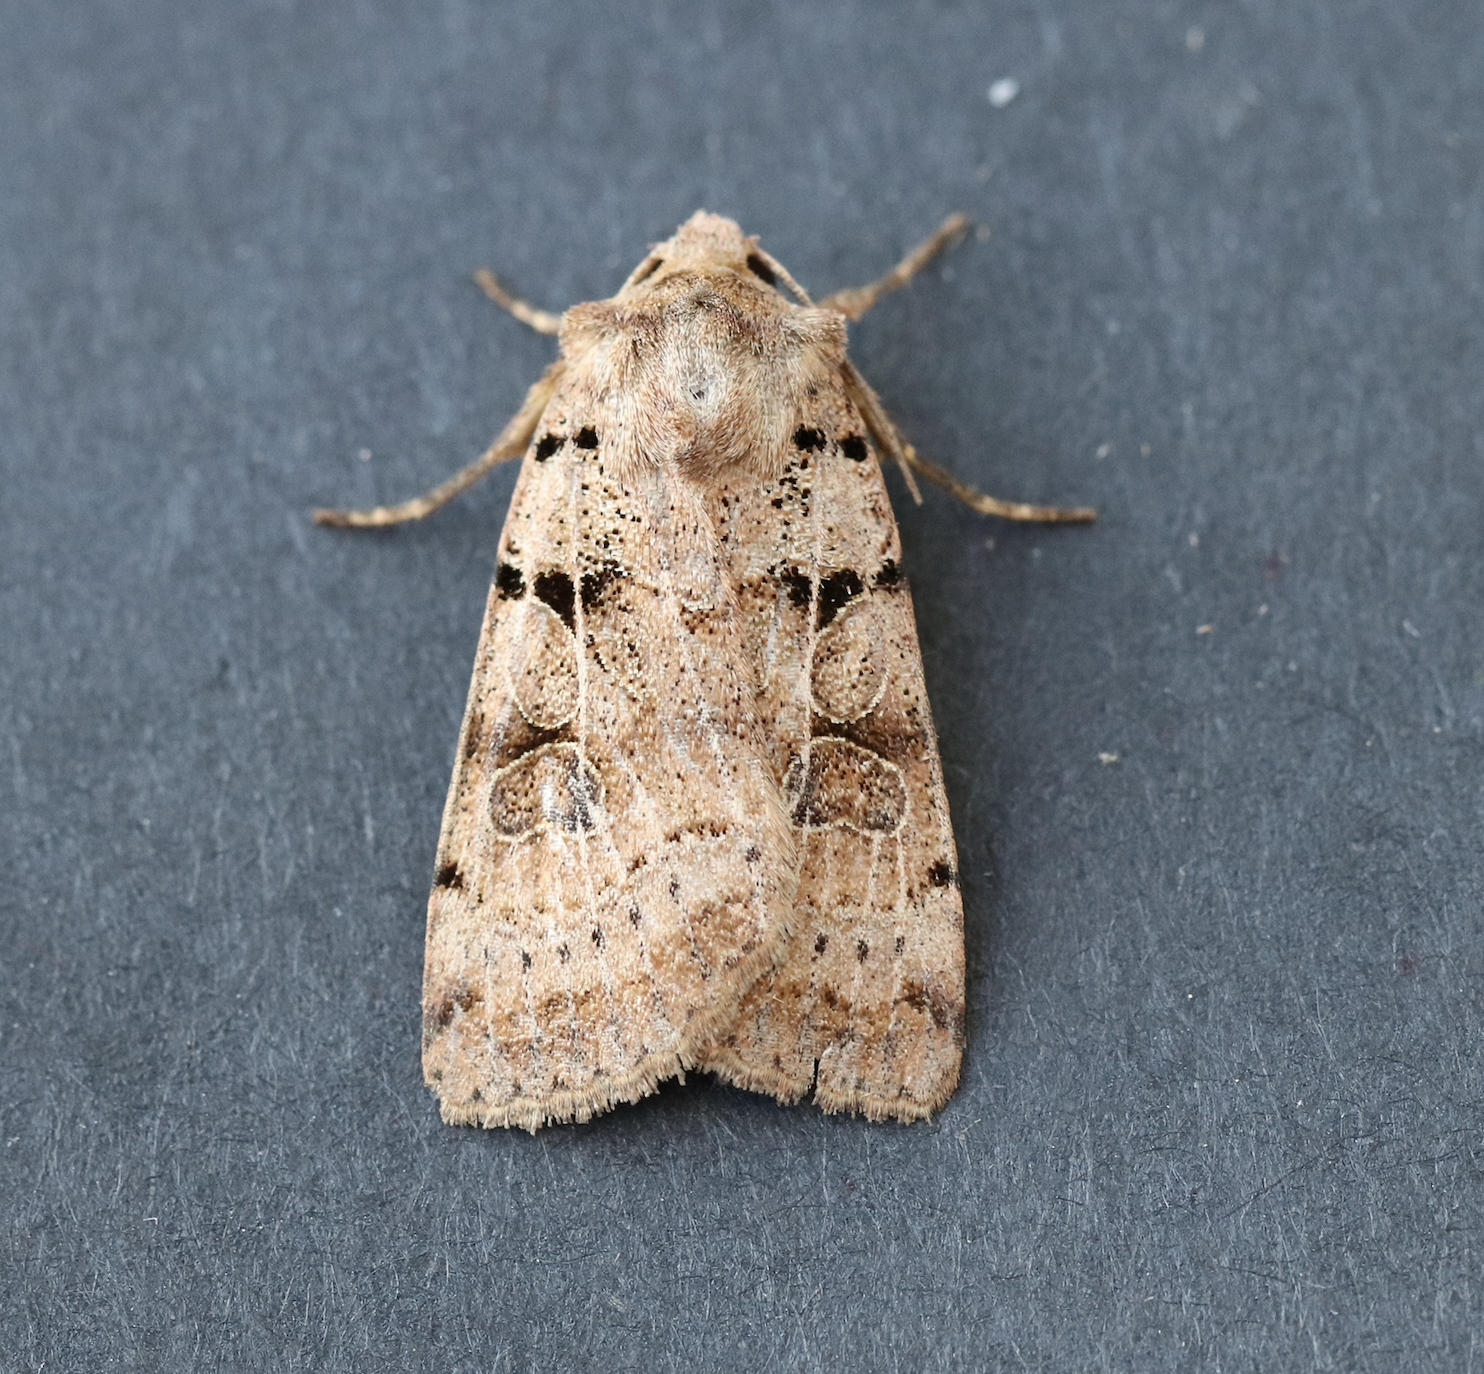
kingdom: Animalia
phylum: Arthropoda
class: Insecta
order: Lepidoptera
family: Noctuidae
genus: Eugnorisma
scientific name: Eugnorisma depuncta
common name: Plain clay
